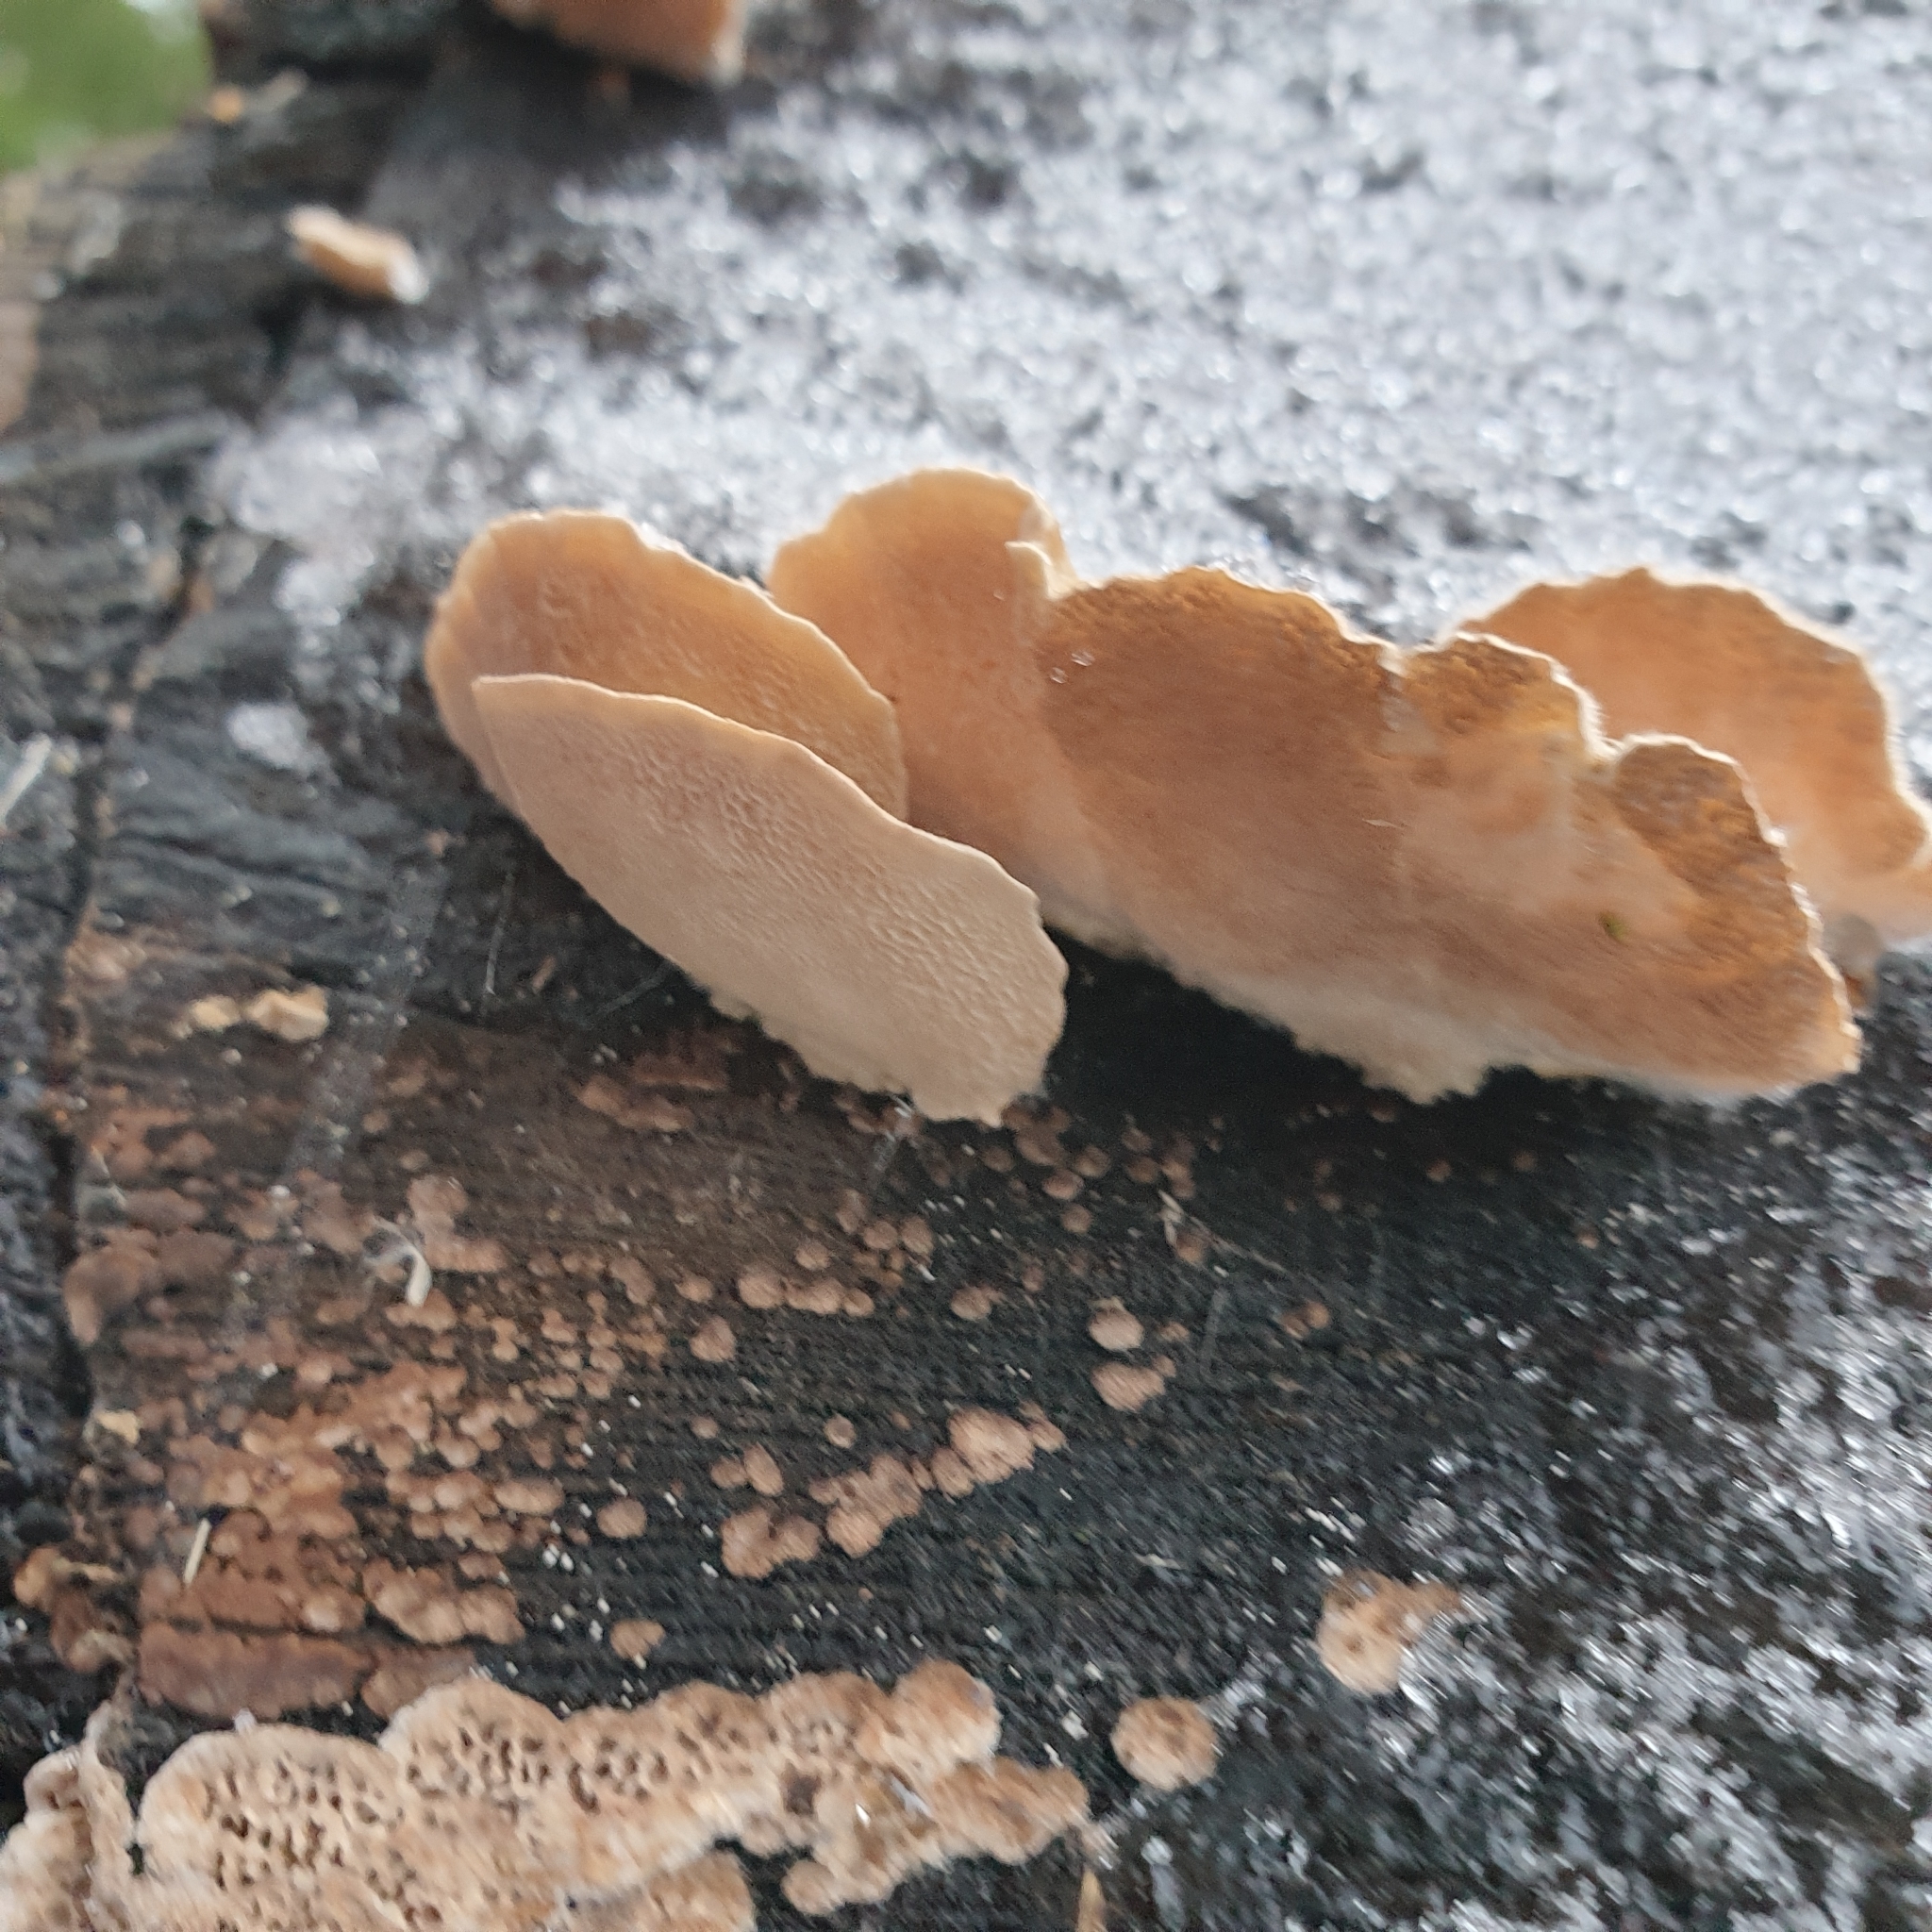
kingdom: Fungi
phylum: Basidiomycota
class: Agaricomycetes
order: Polyporales
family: Polyporaceae
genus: Trametes
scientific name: Trametes ochracea
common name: Ochre bracket
